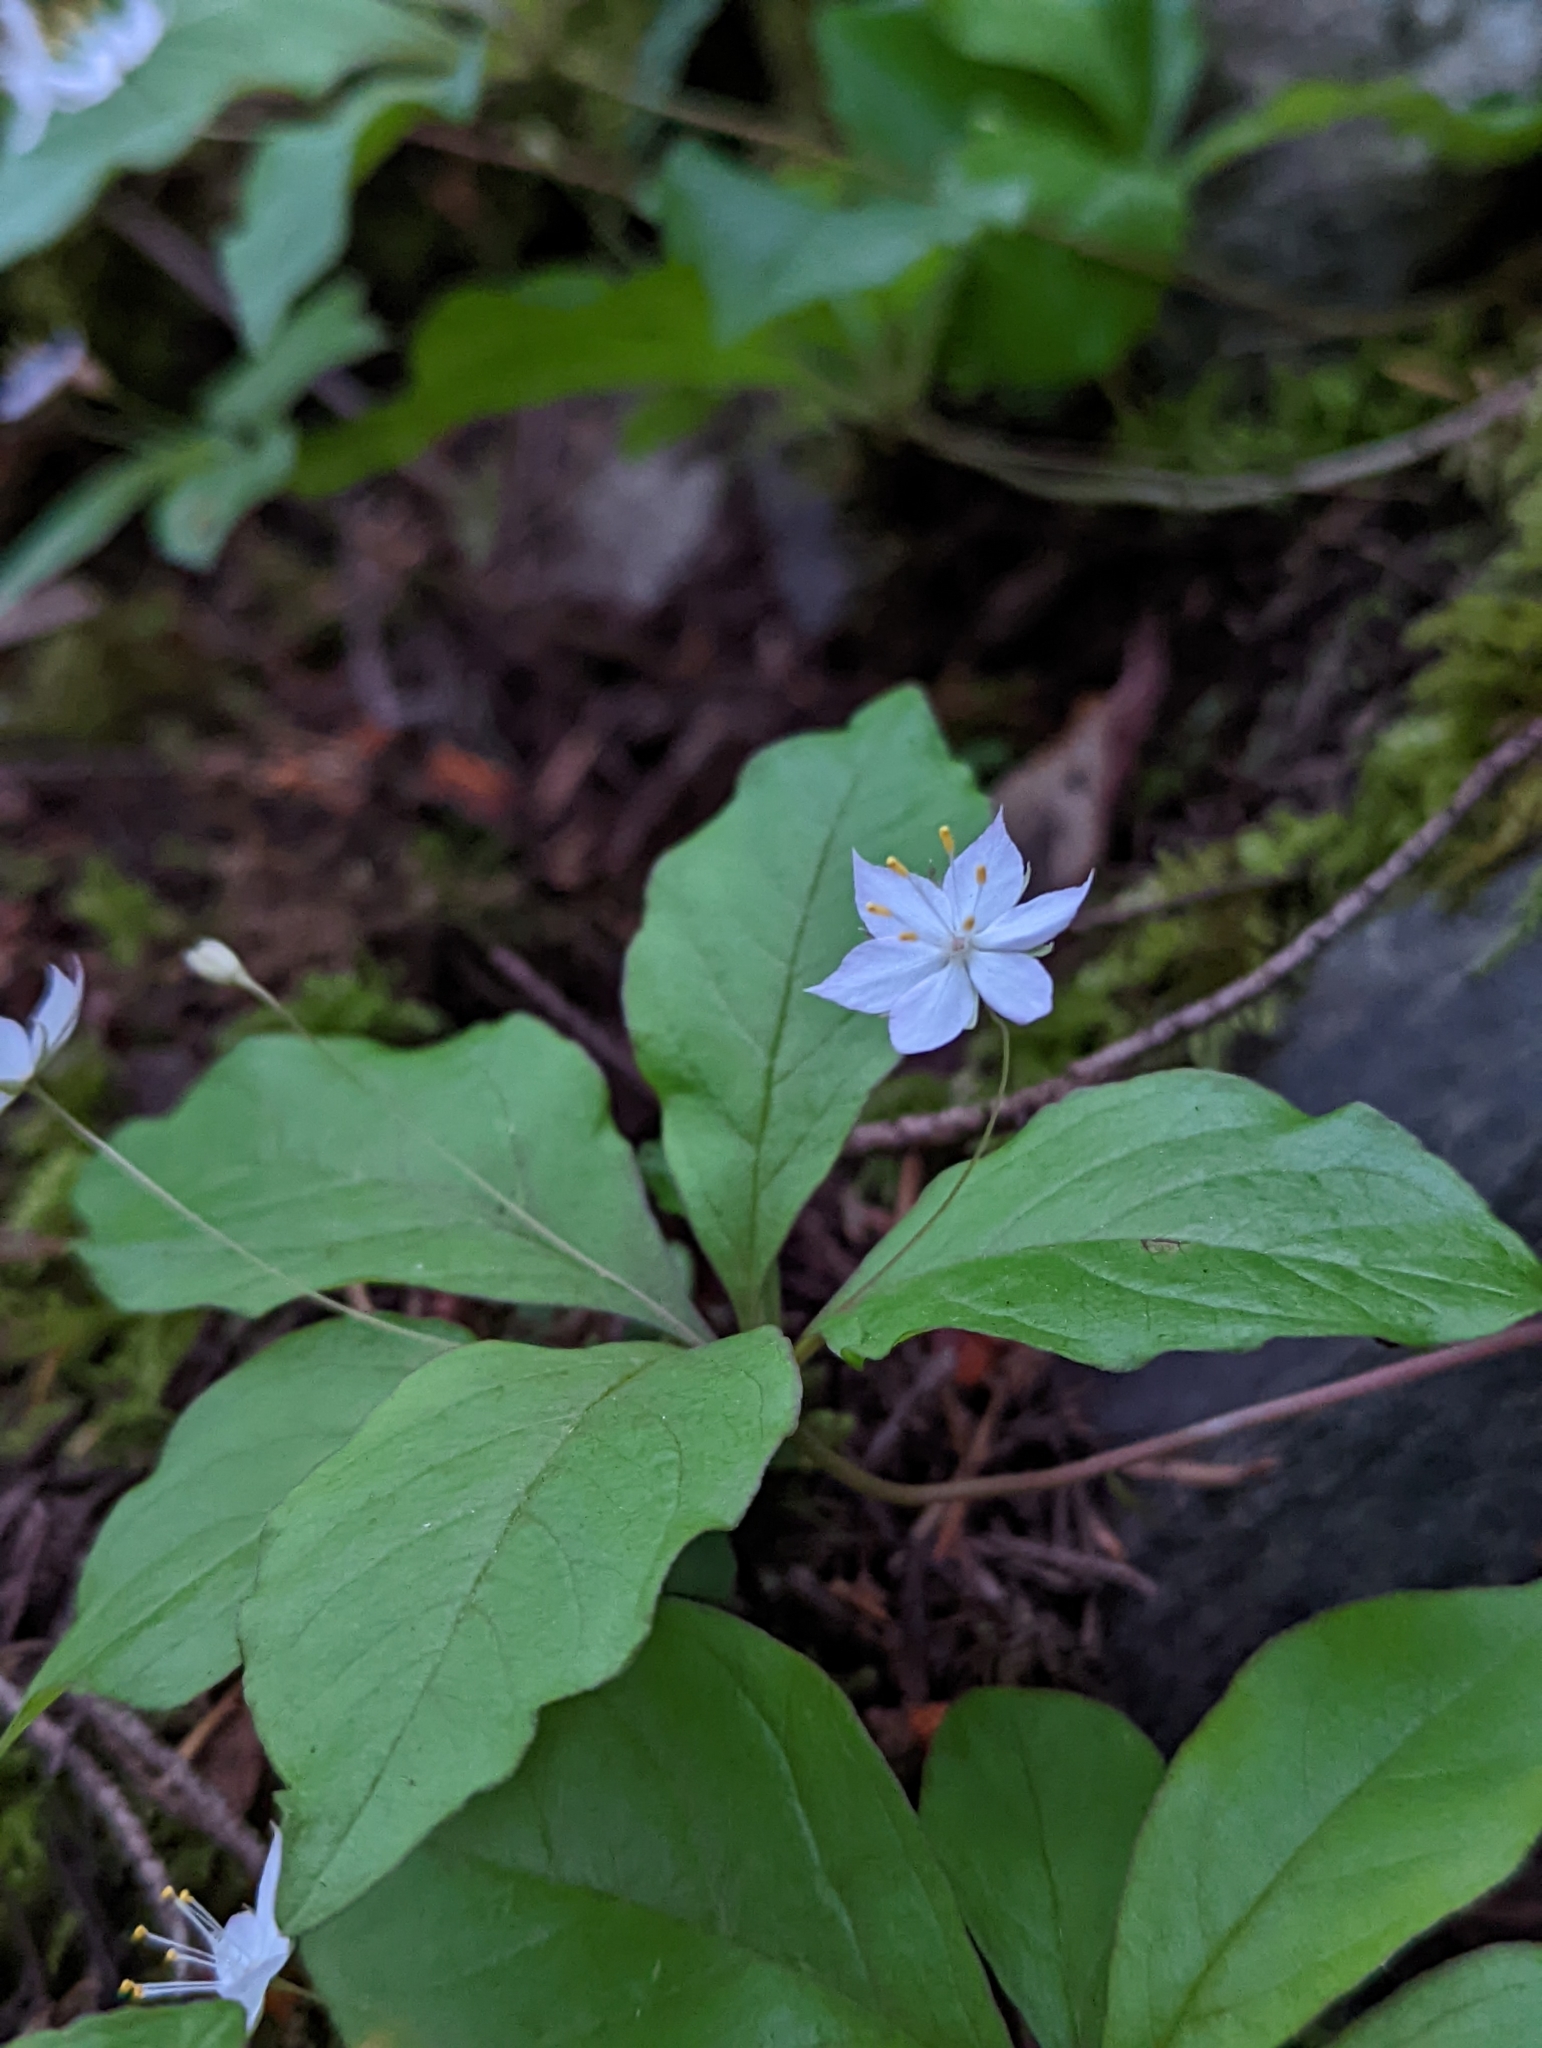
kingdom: Plantae
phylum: Tracheophyta
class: Magnoliopsida
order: Ericales
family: Primulaceae
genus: Lysimachia
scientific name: Lysimachia latifolia
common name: Pacific starflower
